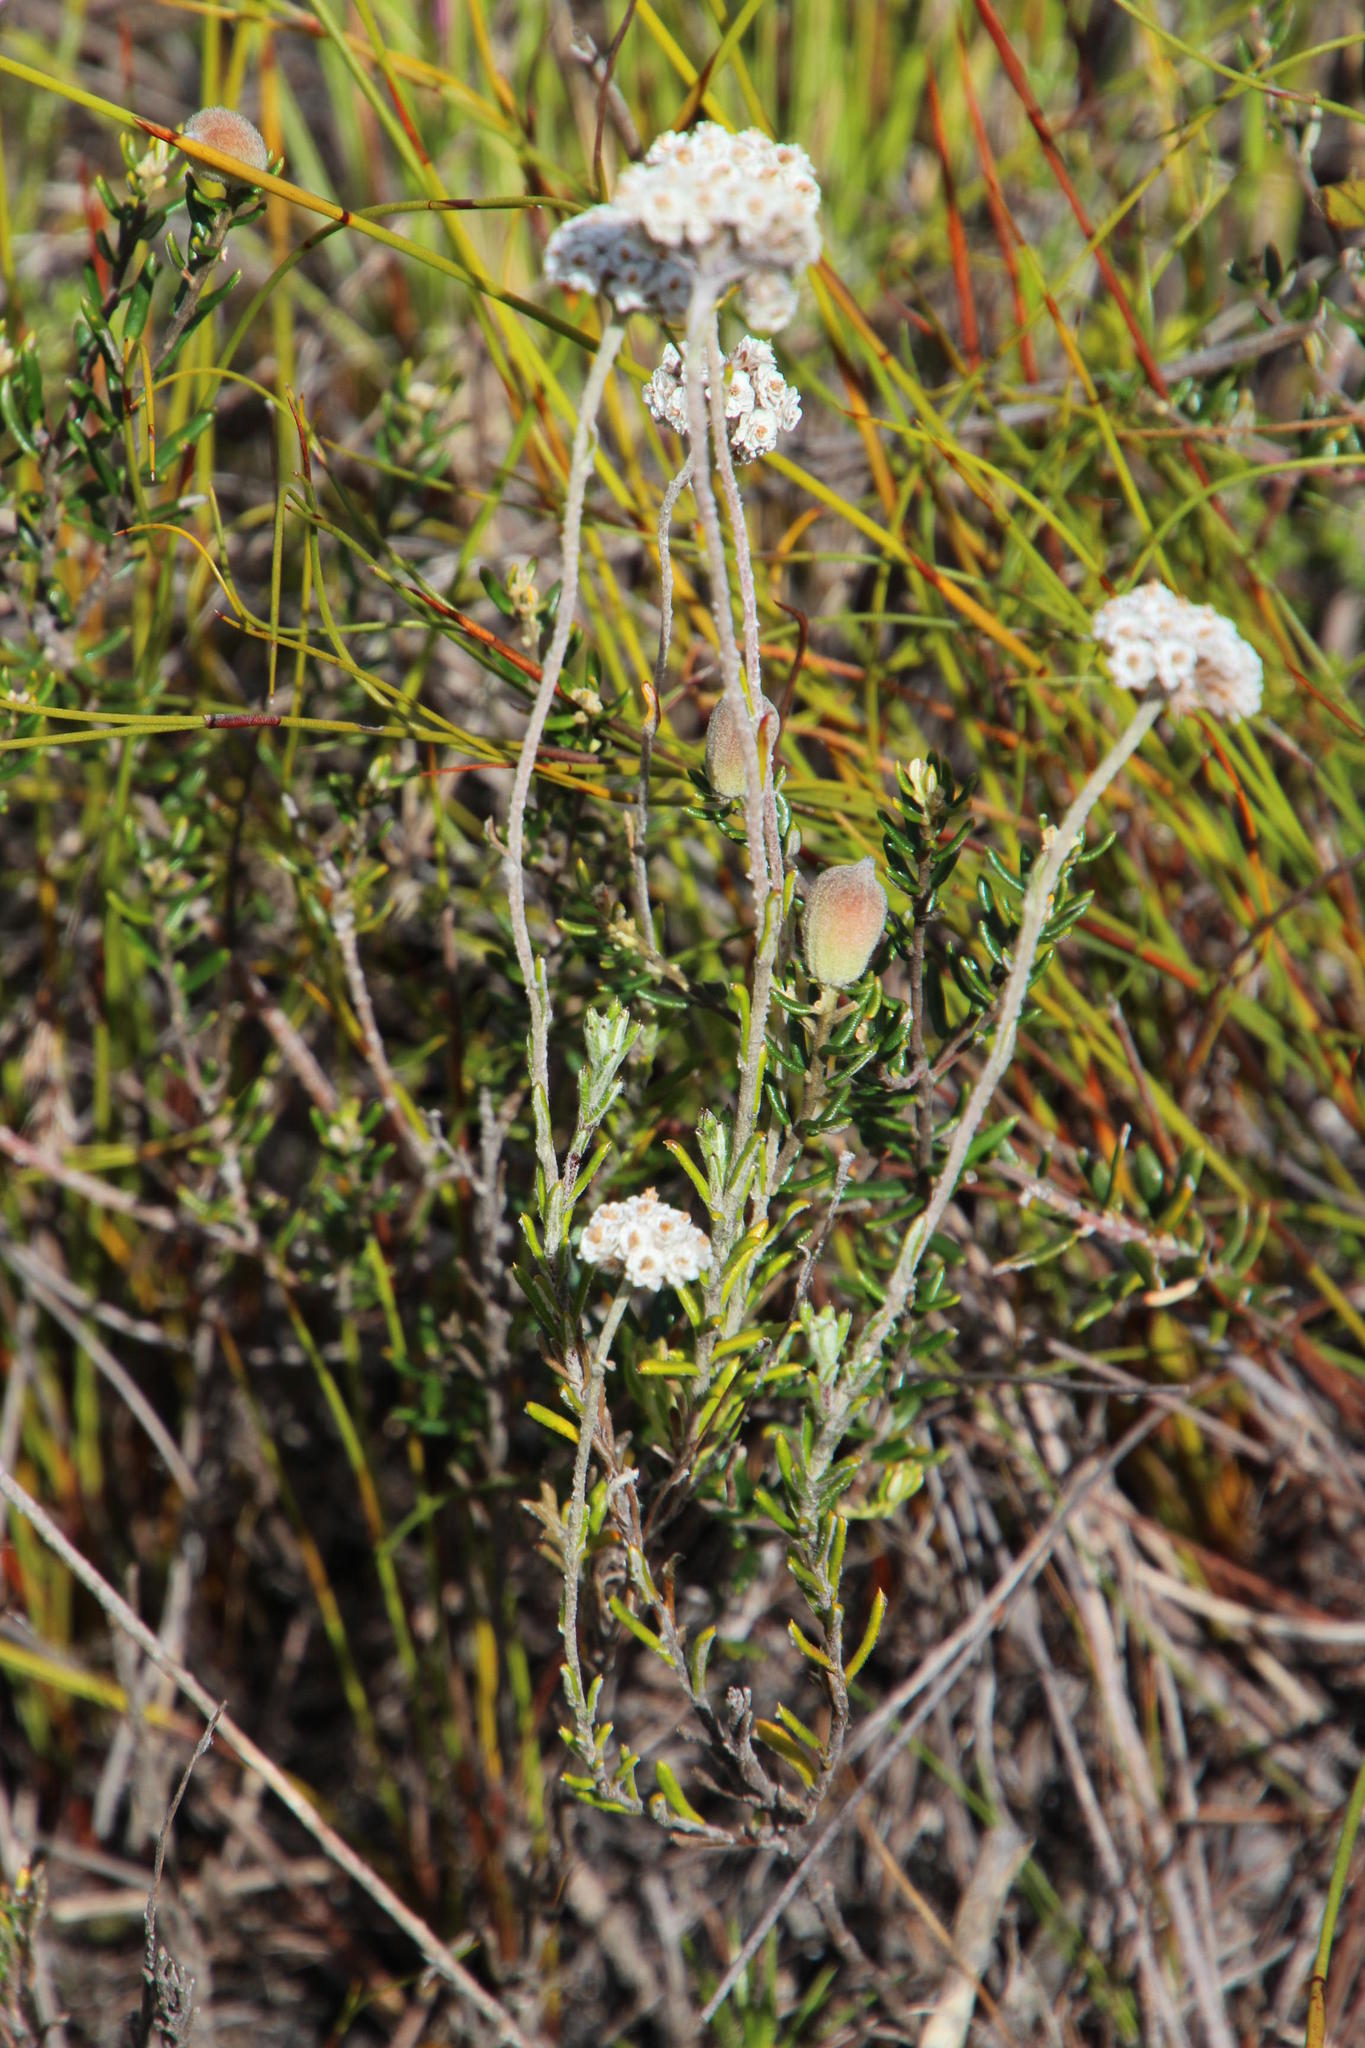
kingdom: Plantae
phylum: Tracheophyta
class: Magnoliopsida
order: Asterales
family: Asteraceae
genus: Anaxeton
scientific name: Anaxeton asperum
